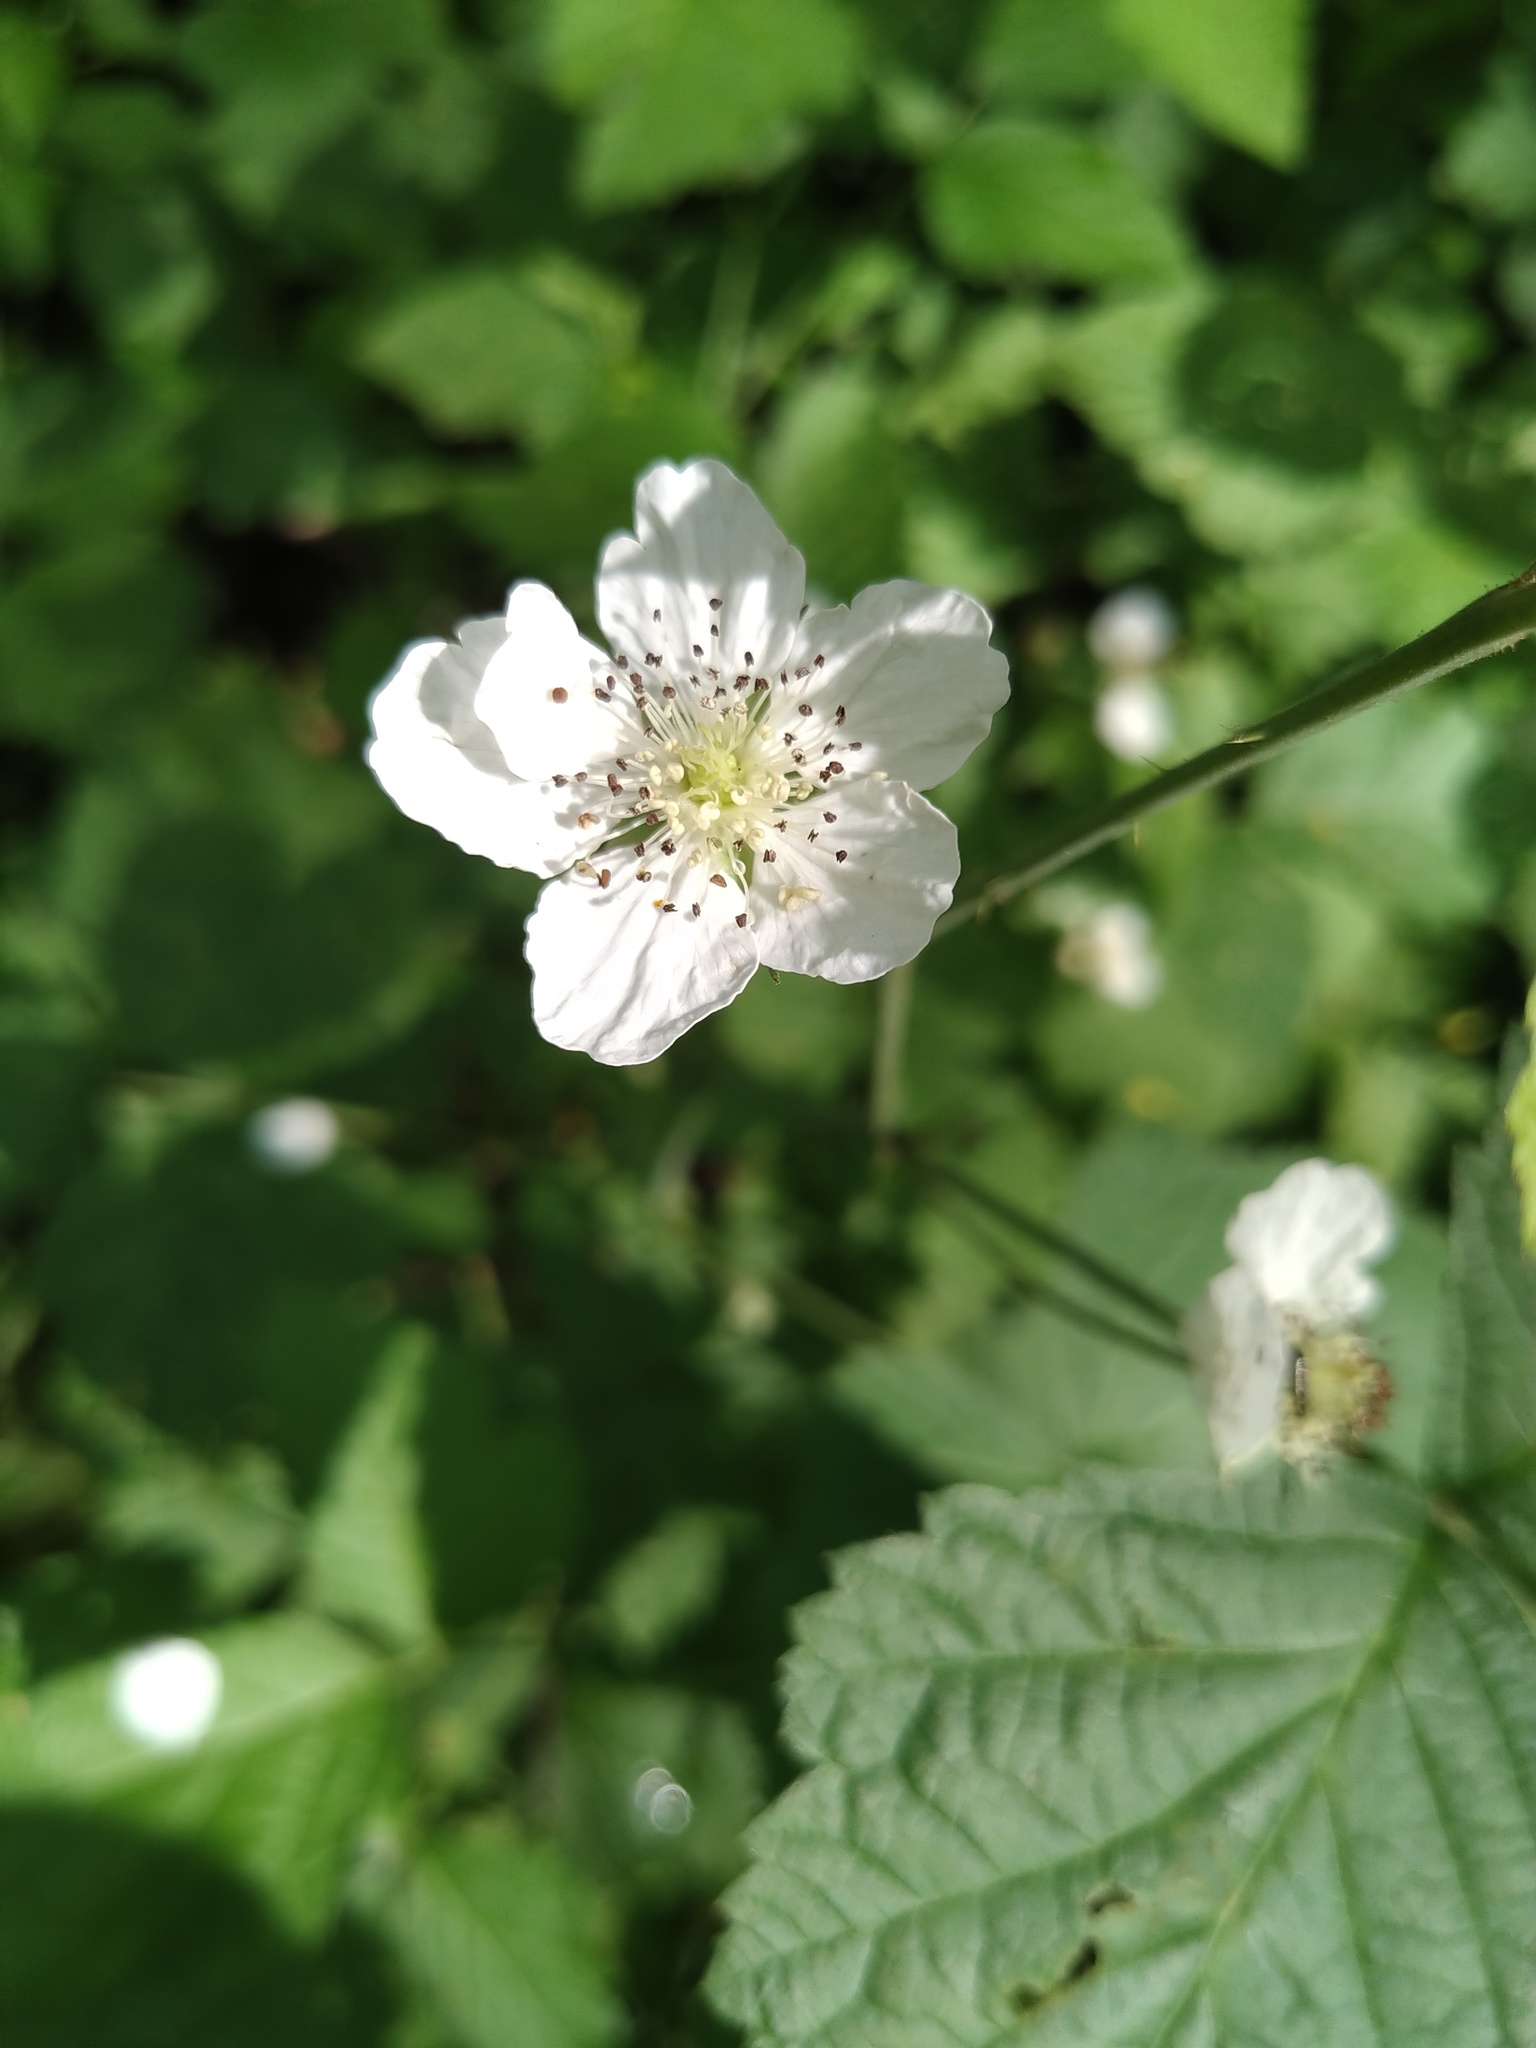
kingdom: Plantae
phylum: Tracheophyta
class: Magnoliopsida
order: Rosales
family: Rosaceae
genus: Rubus
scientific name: Rubus caesius
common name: Dewberry
